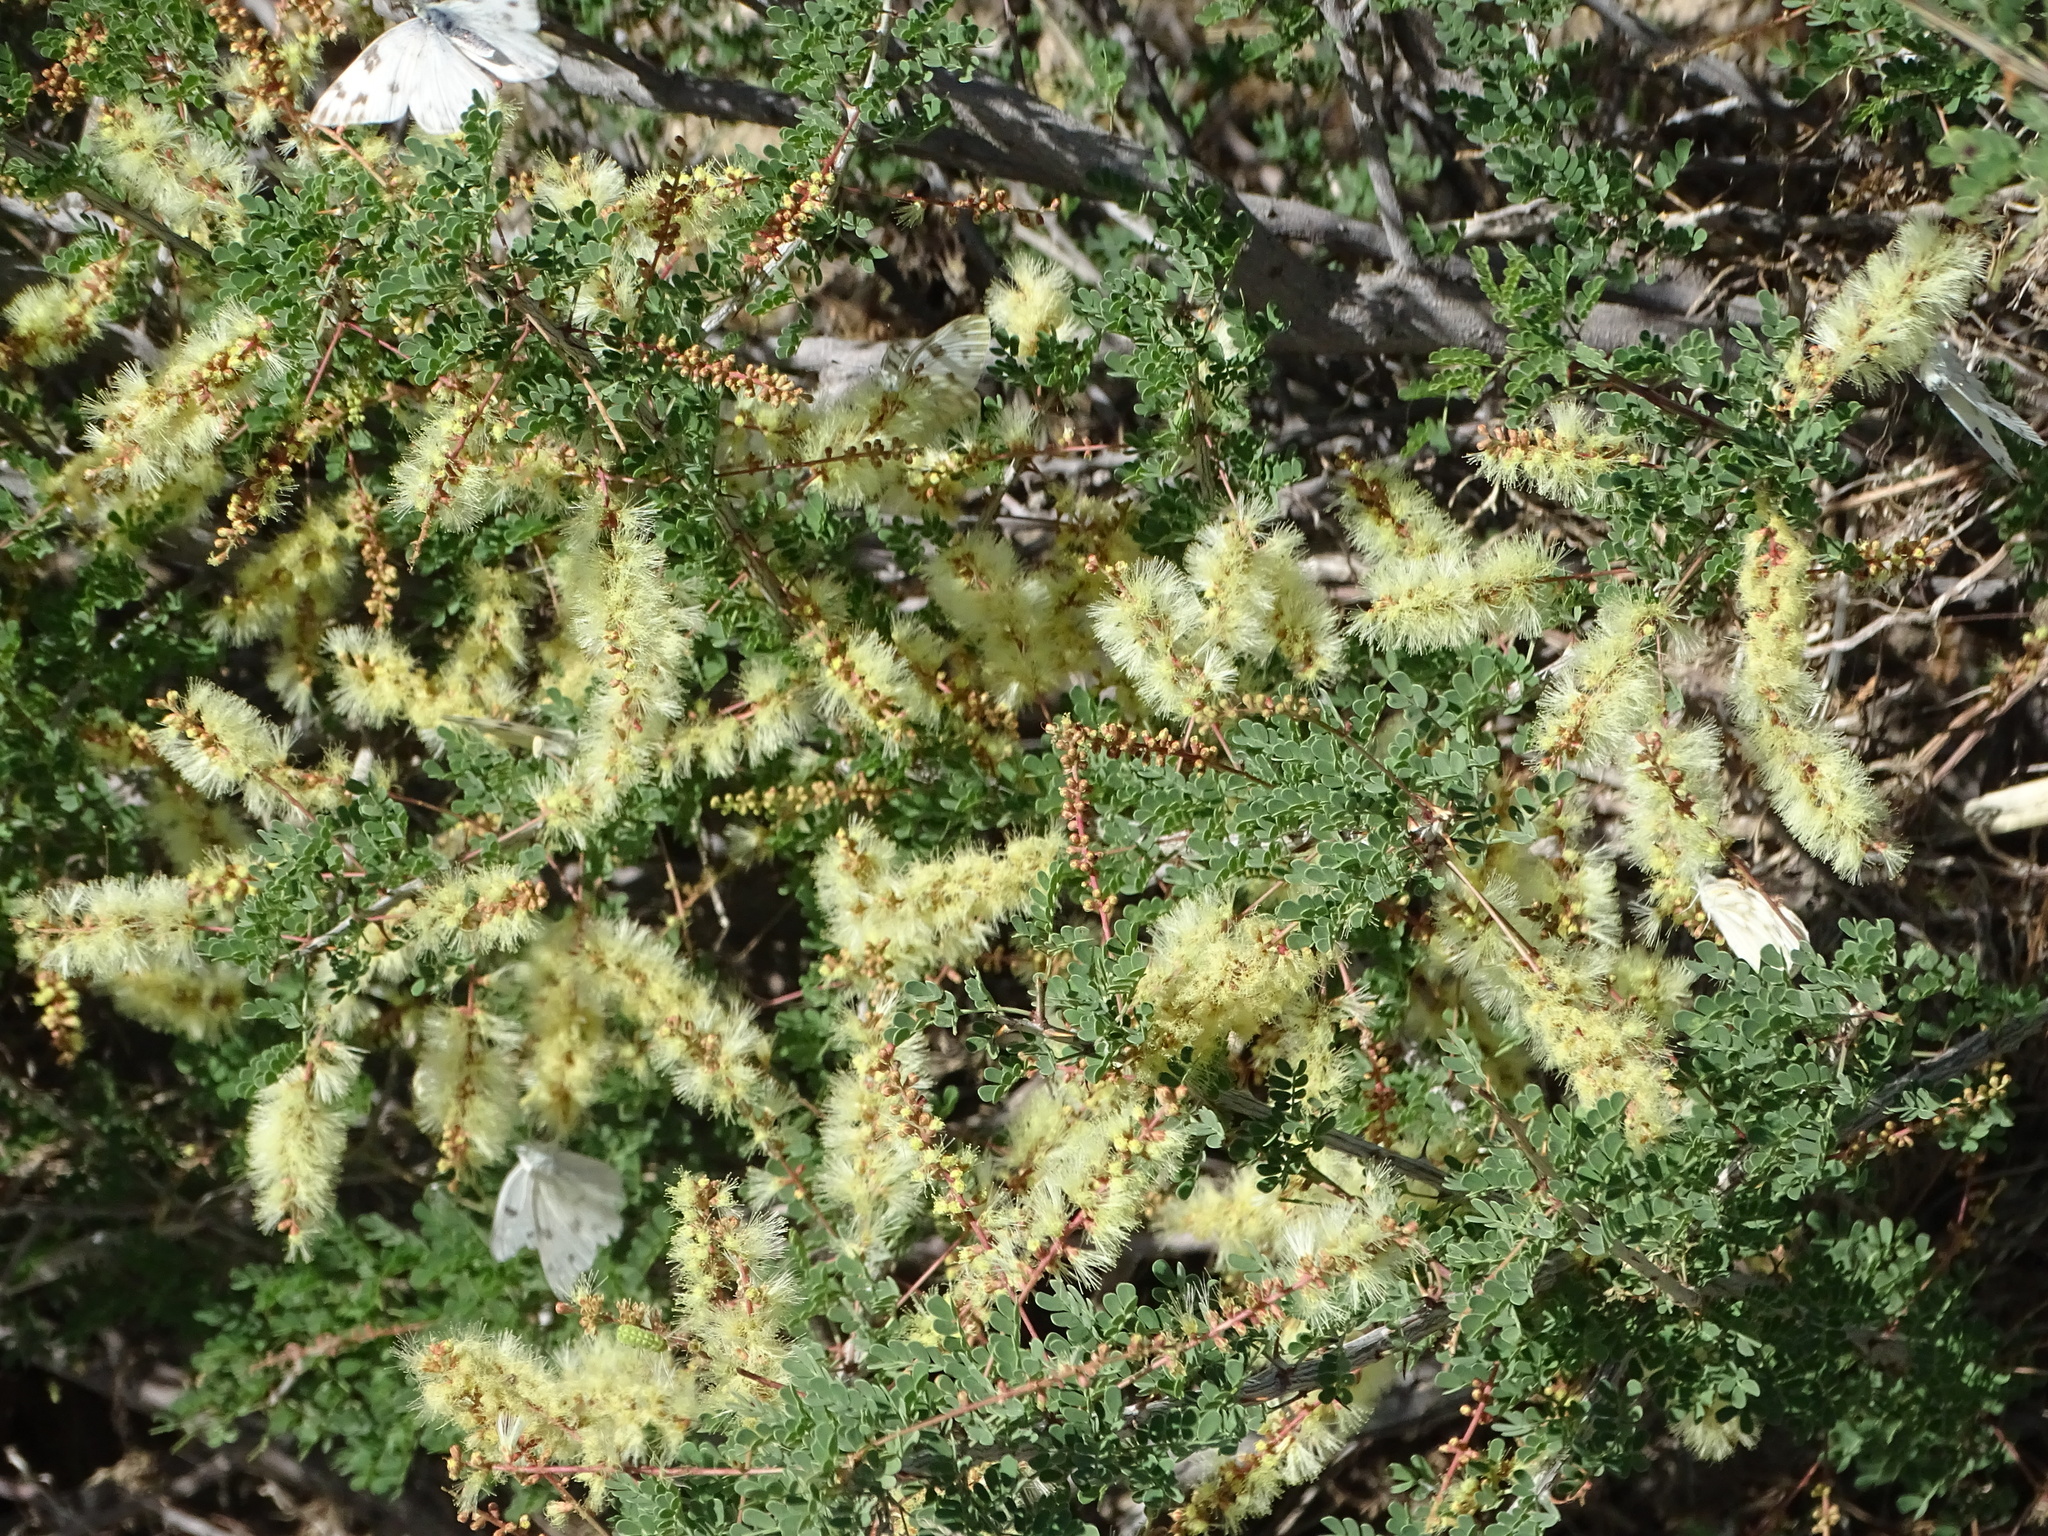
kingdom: Plantae
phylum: Tracheophyta
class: Magnoliopsida
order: Fabales
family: Fabaceae
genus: Senegalia
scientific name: Senegalia greggii
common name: Texas-mimosa
